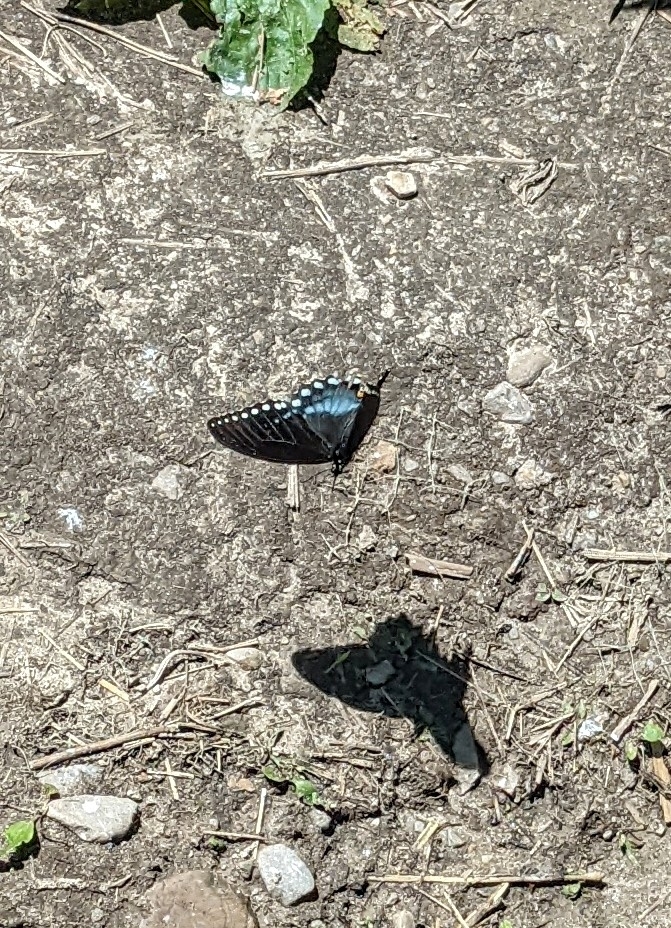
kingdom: Animalia
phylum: Arthropoda
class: Insecta
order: Lepidoptera
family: Papilionidae
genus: Papilio
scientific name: Papilio troilus
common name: Spicebush swallowtail
